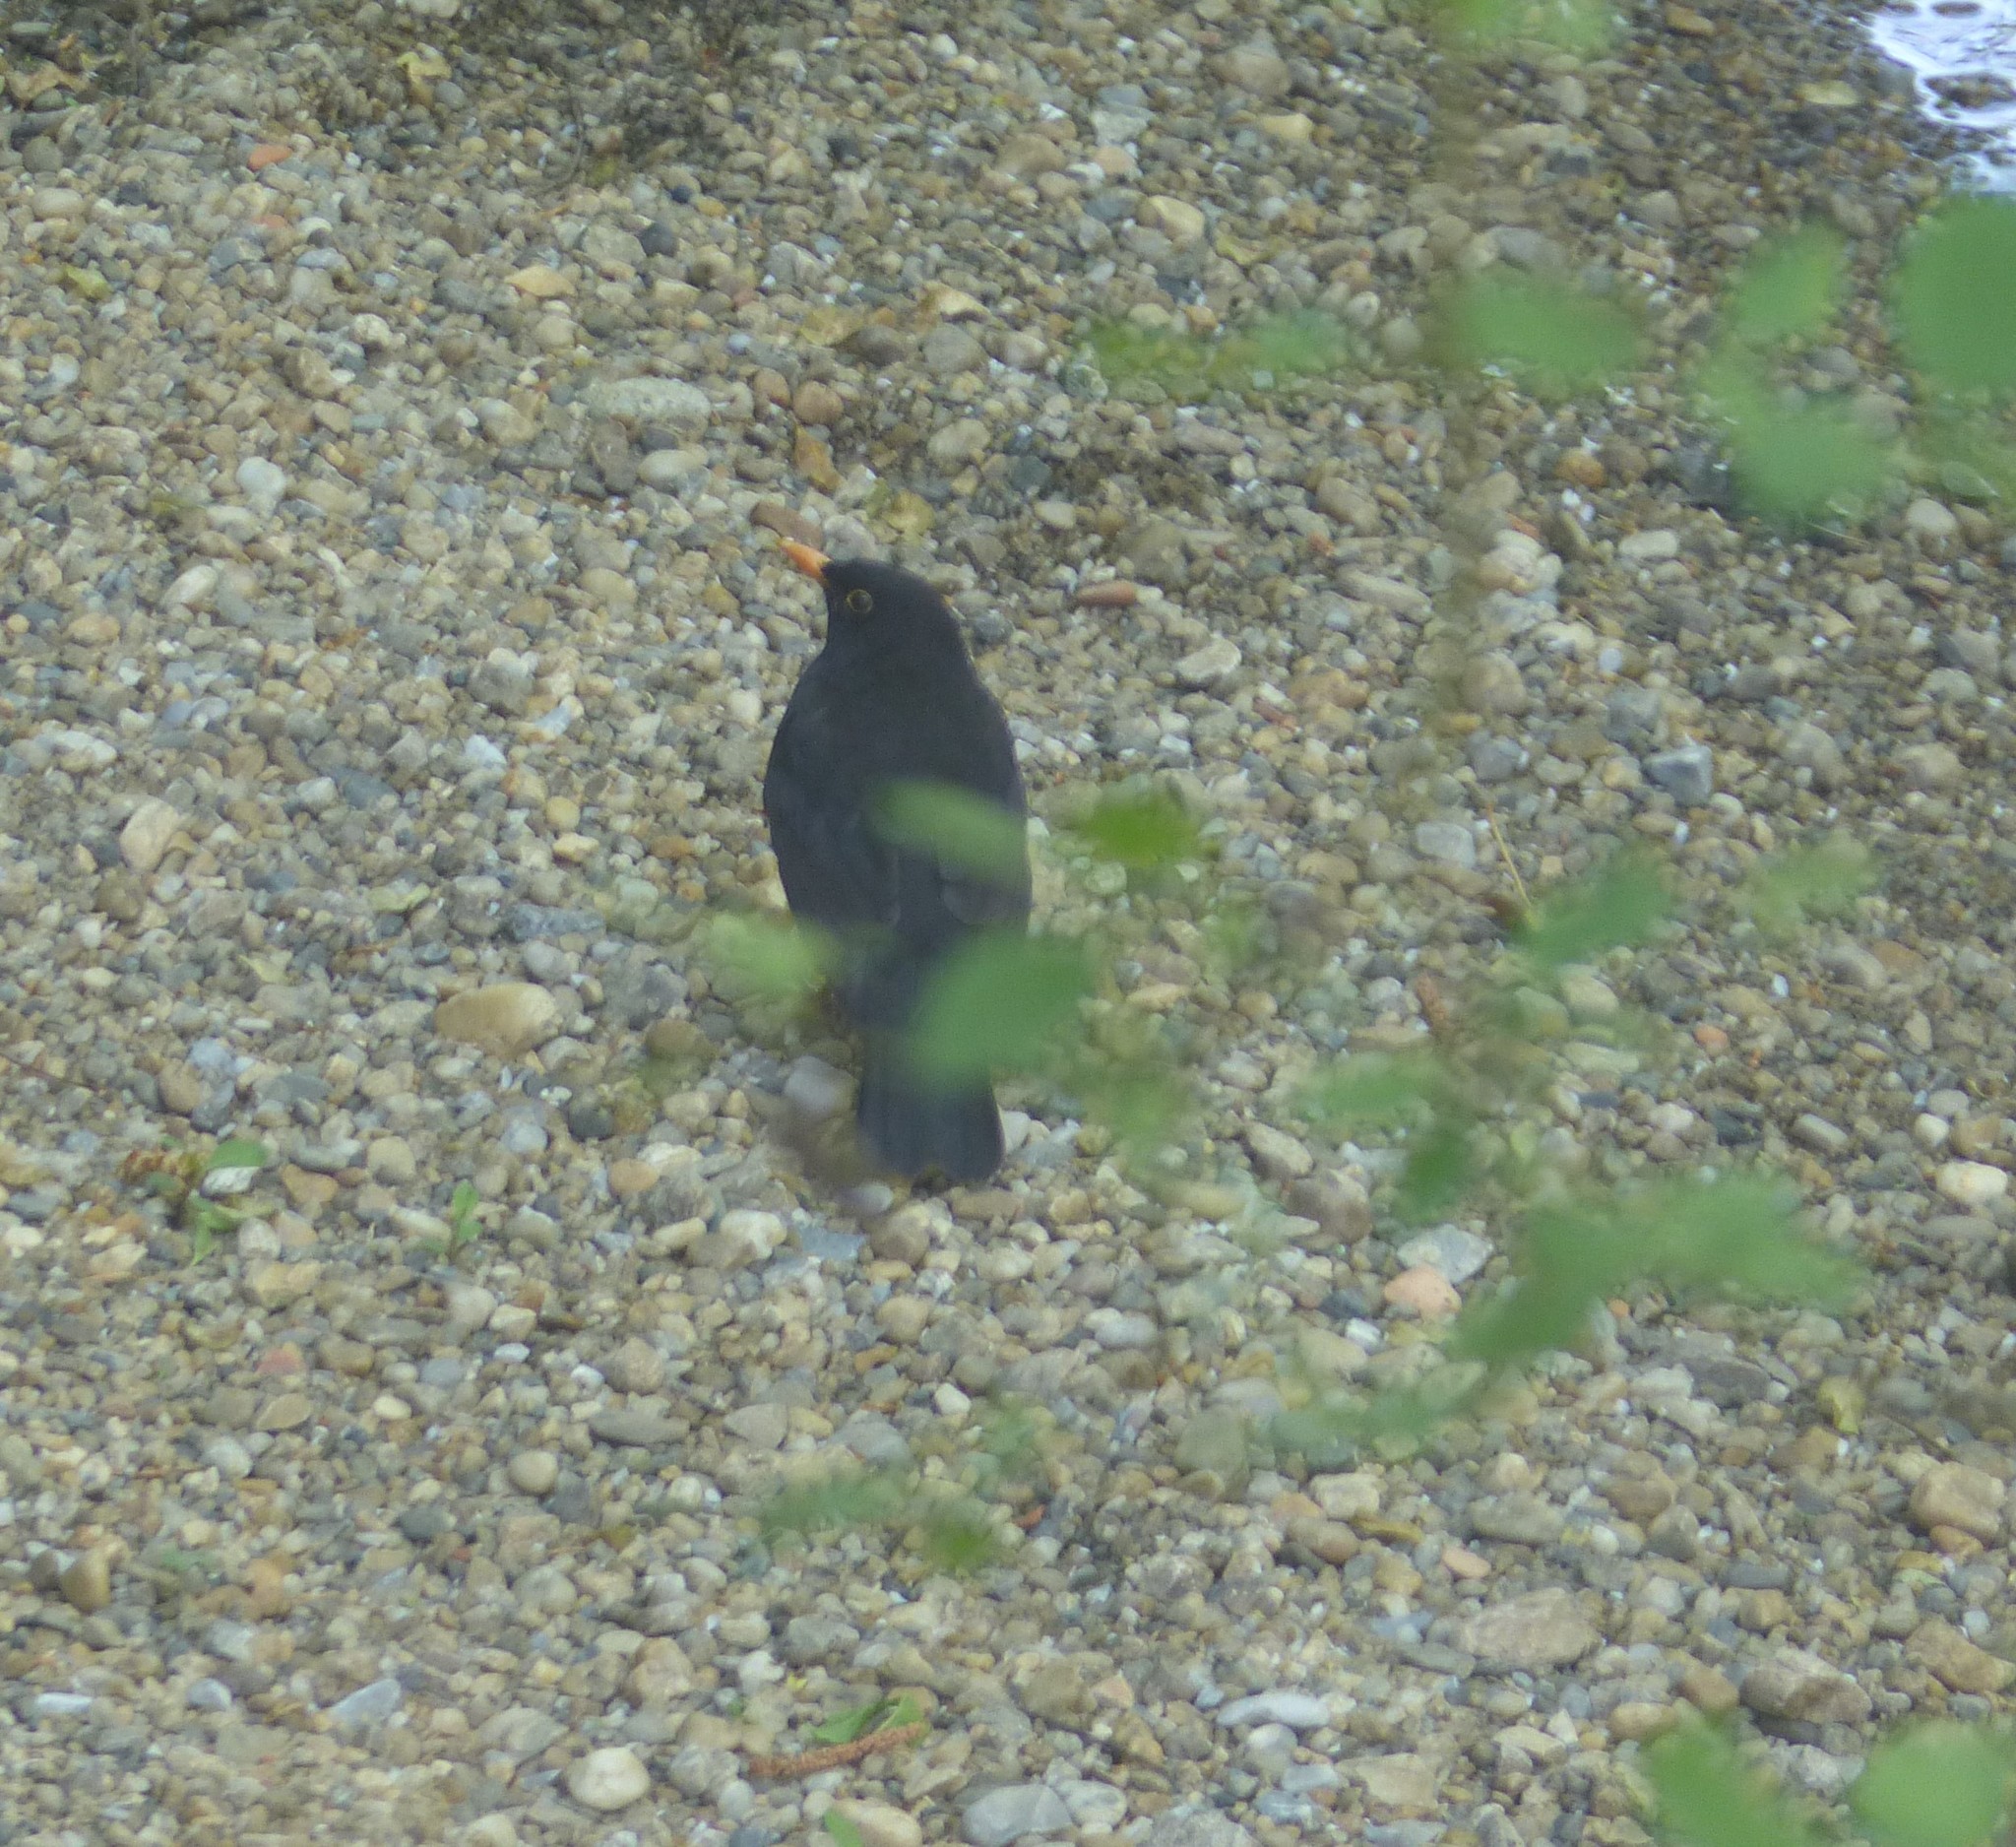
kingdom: Animalia
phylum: Chordata
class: Aves
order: Passeriformes
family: Turdidae
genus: Turdus
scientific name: Turdus merula
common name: Common blackbird
